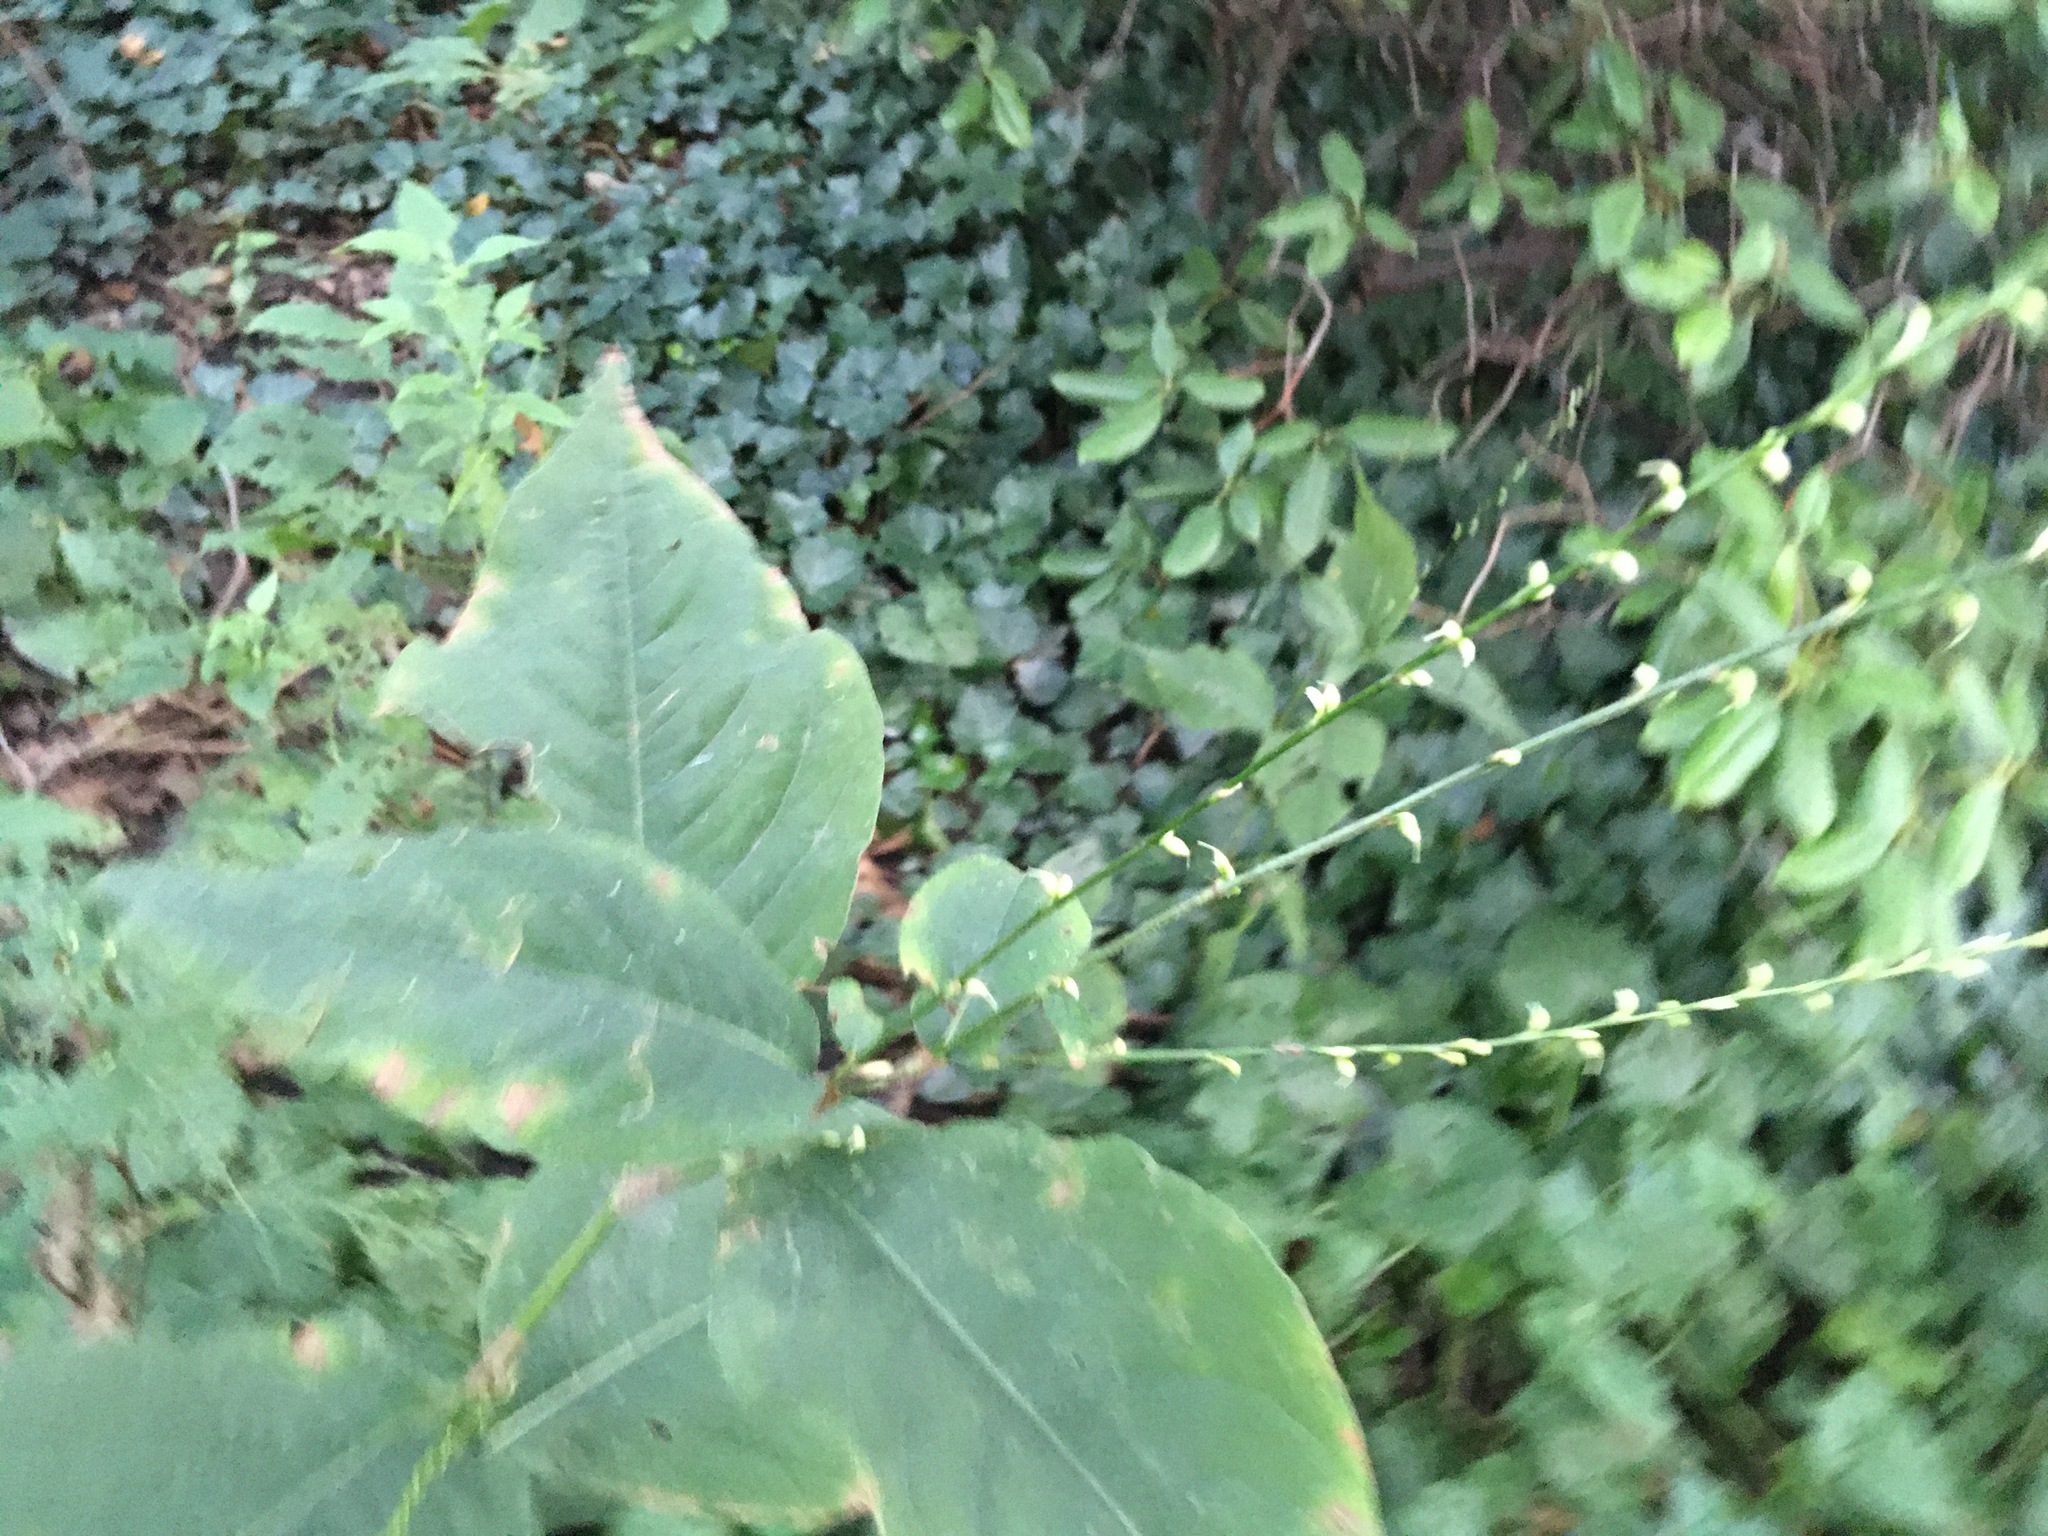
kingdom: Plantae
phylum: Tracheophyta
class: Magnoliopsida
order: Caryophyllales
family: Polygonaceae
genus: Persicaria
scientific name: Persicaria virginiana
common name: Jumpseed
